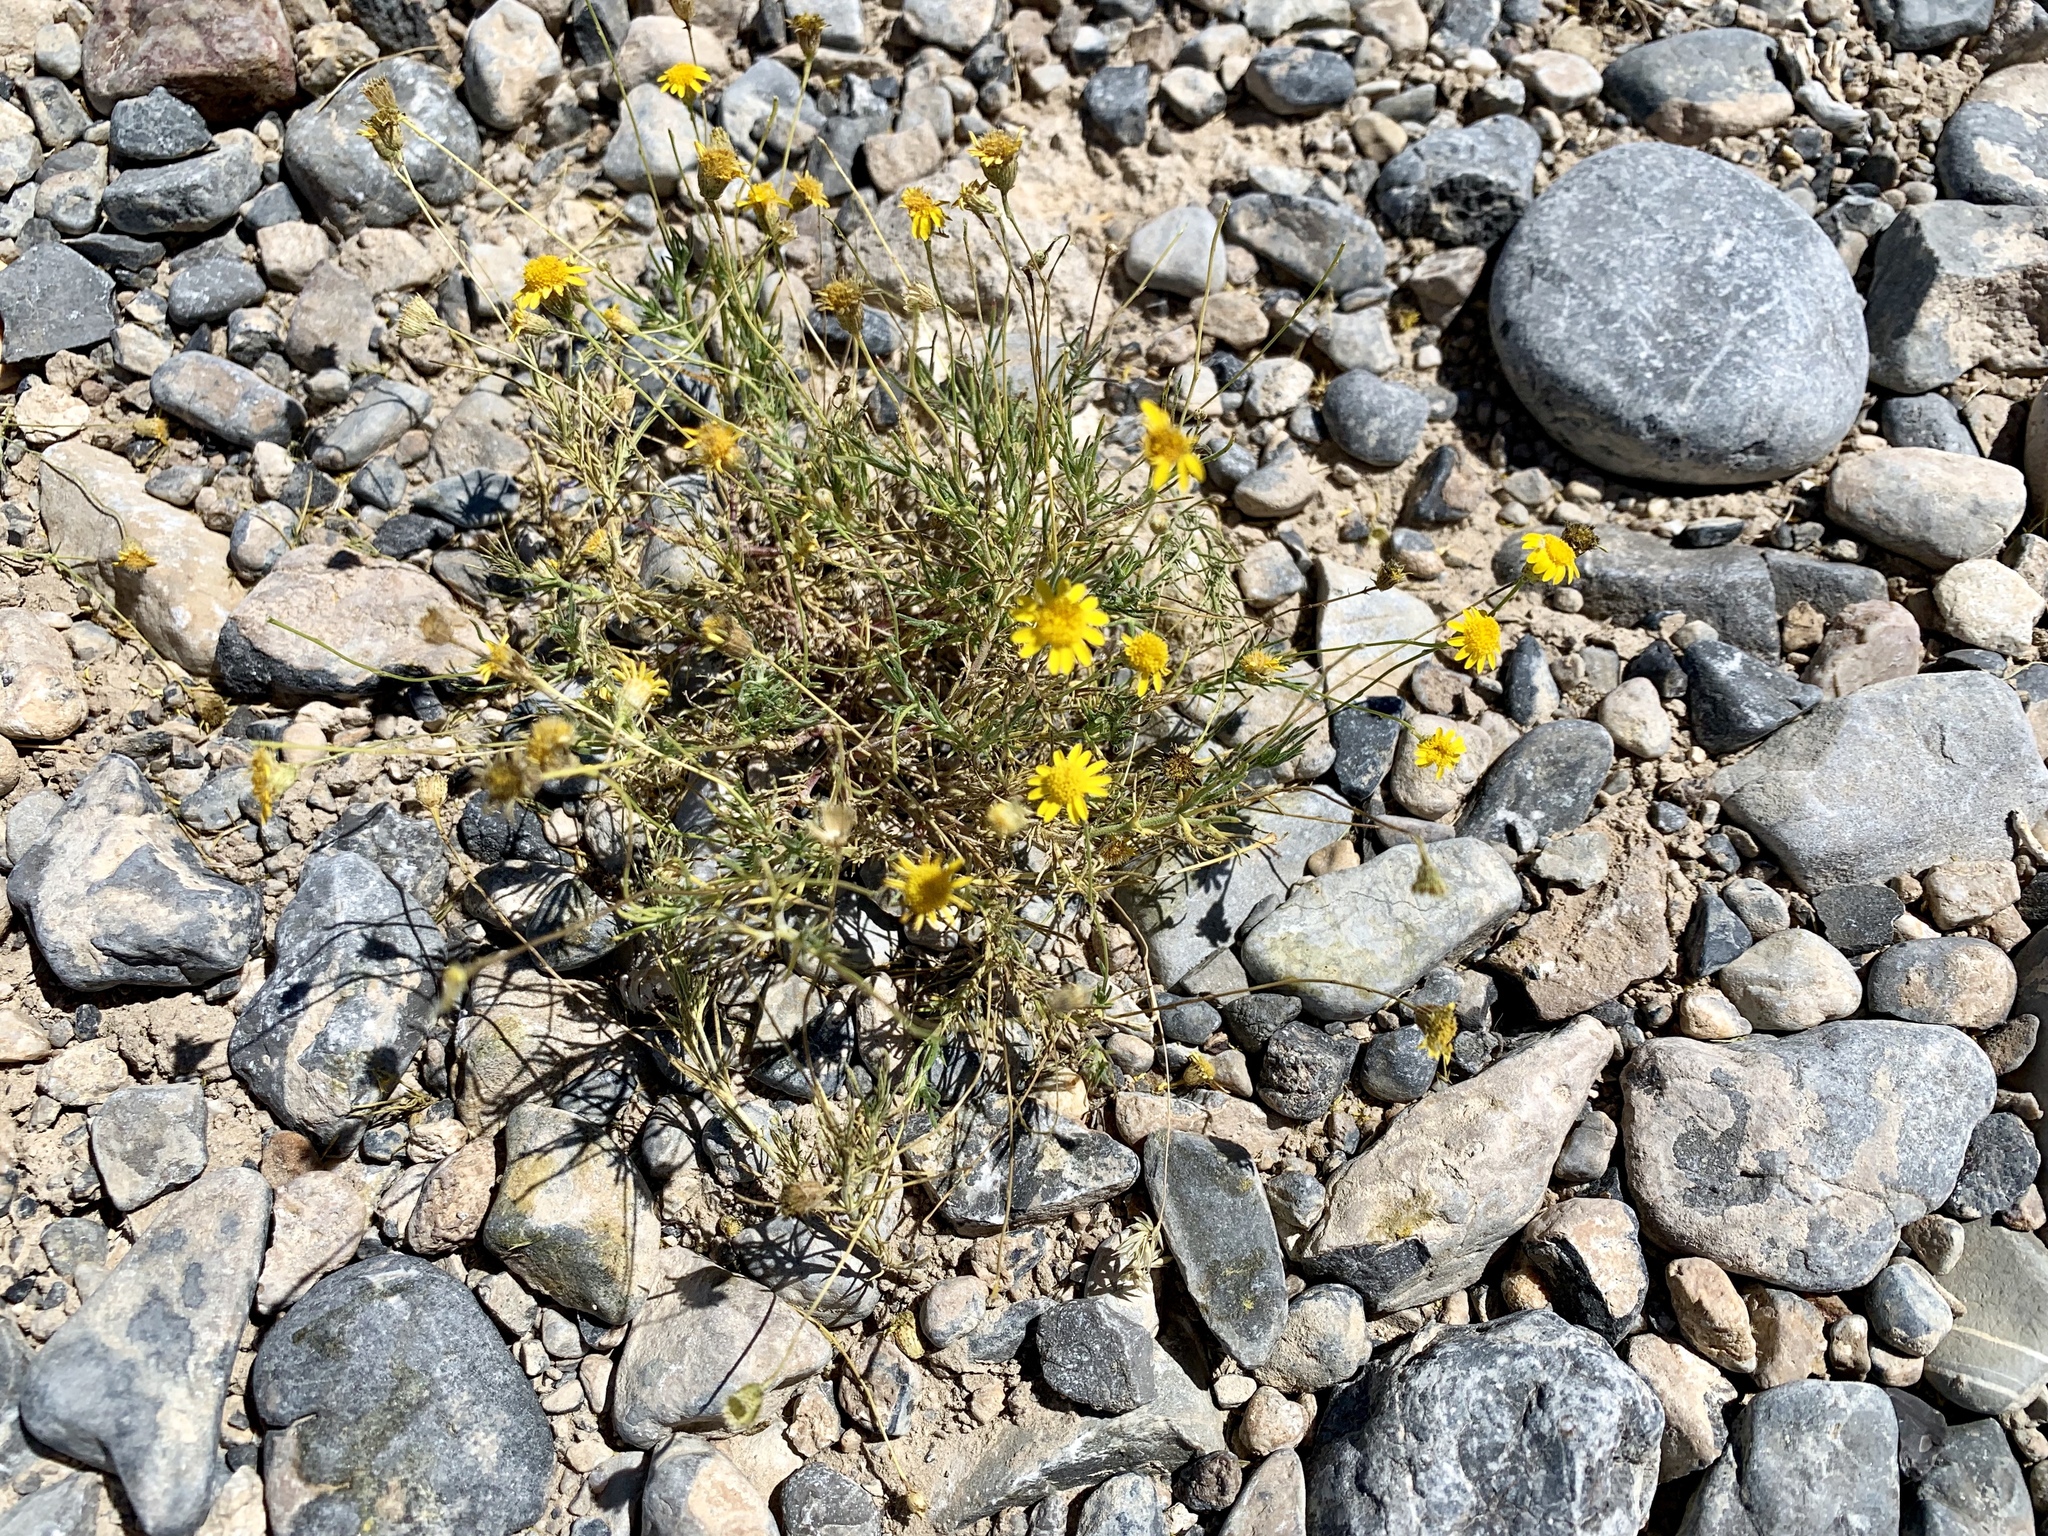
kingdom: Plantae
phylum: Tracheophyta
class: Magnoliopsida
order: Asterales
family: Asteraceae
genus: Thymophylla
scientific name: Thymophylla pentachaeta
